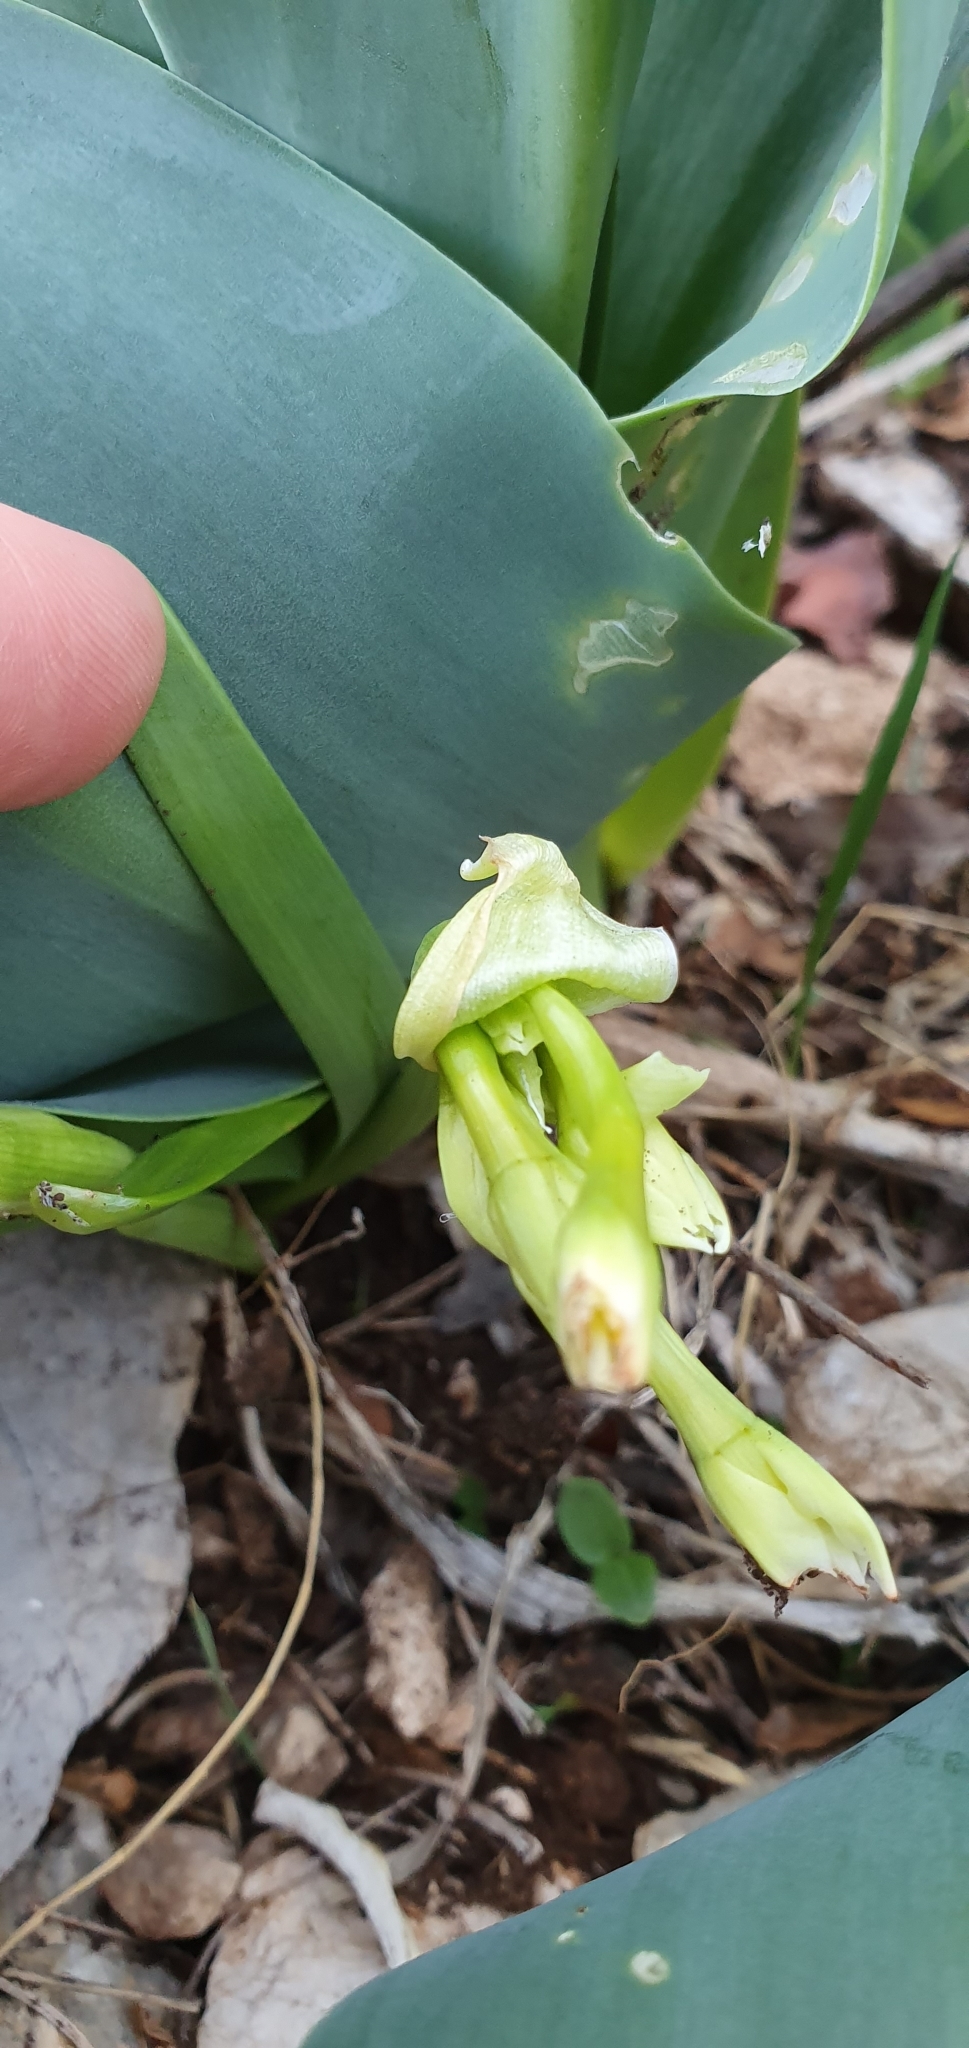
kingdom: Plantae
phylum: Tracheophyta
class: Liliopsida
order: Asparagales
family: Amaryllidaceae
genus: Narcissus
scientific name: Narcissus tazetta
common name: Bunch-flowered daffodil
